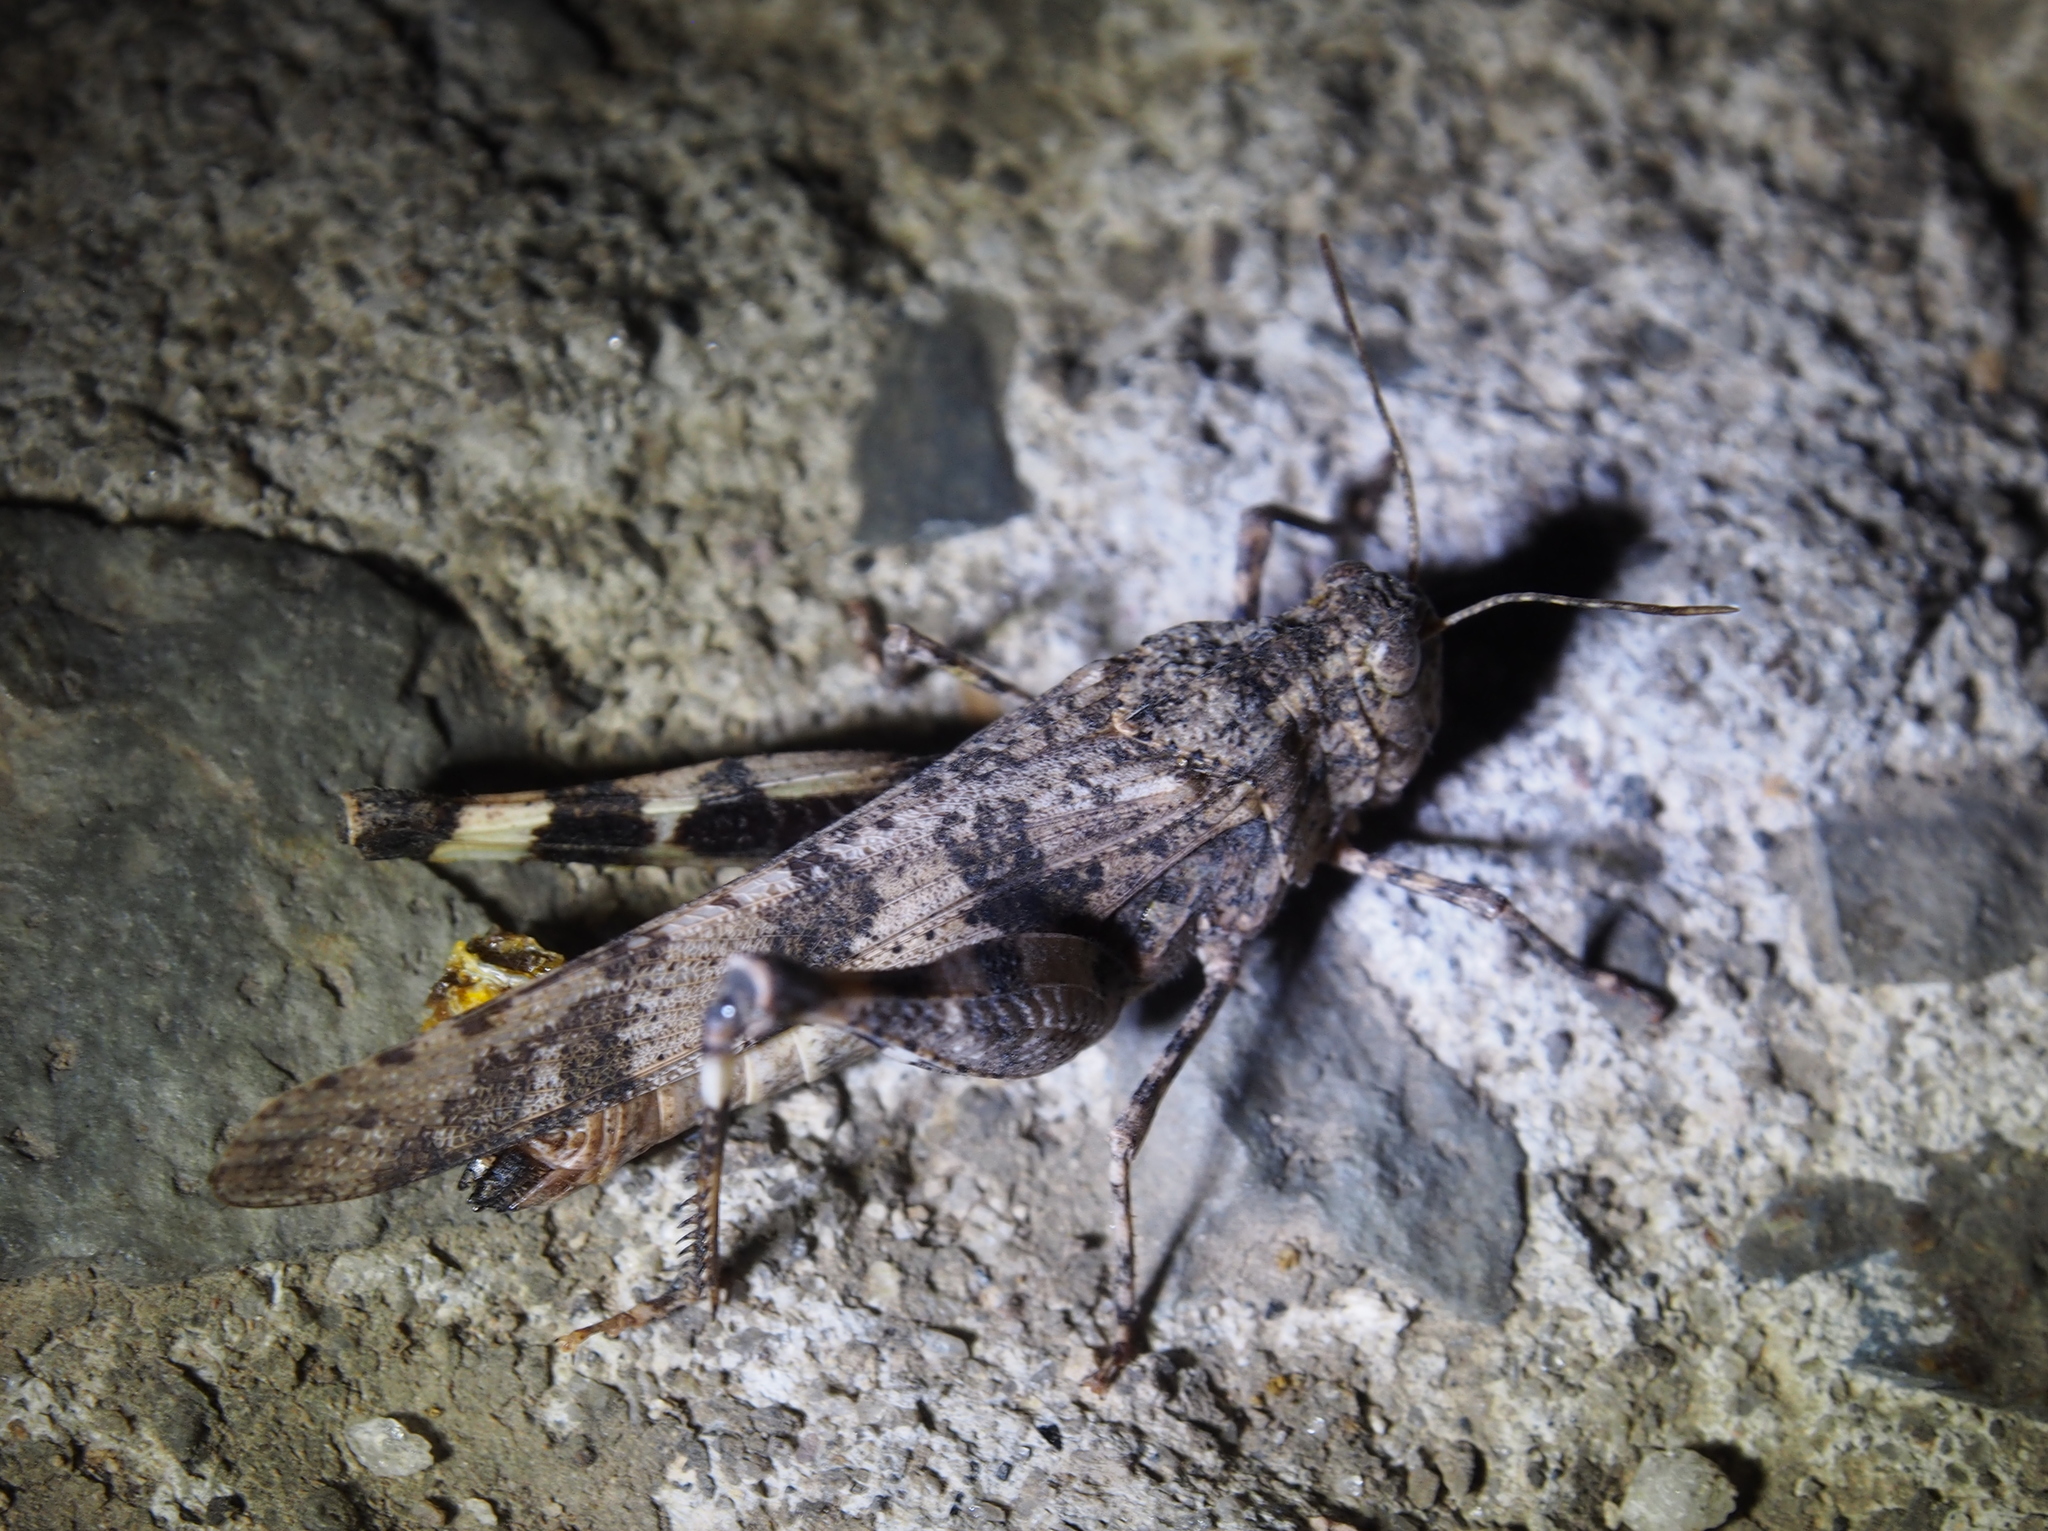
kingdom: Animalia
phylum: Arthropoda
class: Insecta
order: Orthoptera
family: Acrididae
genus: Lactista
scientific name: Lactista stramineus
